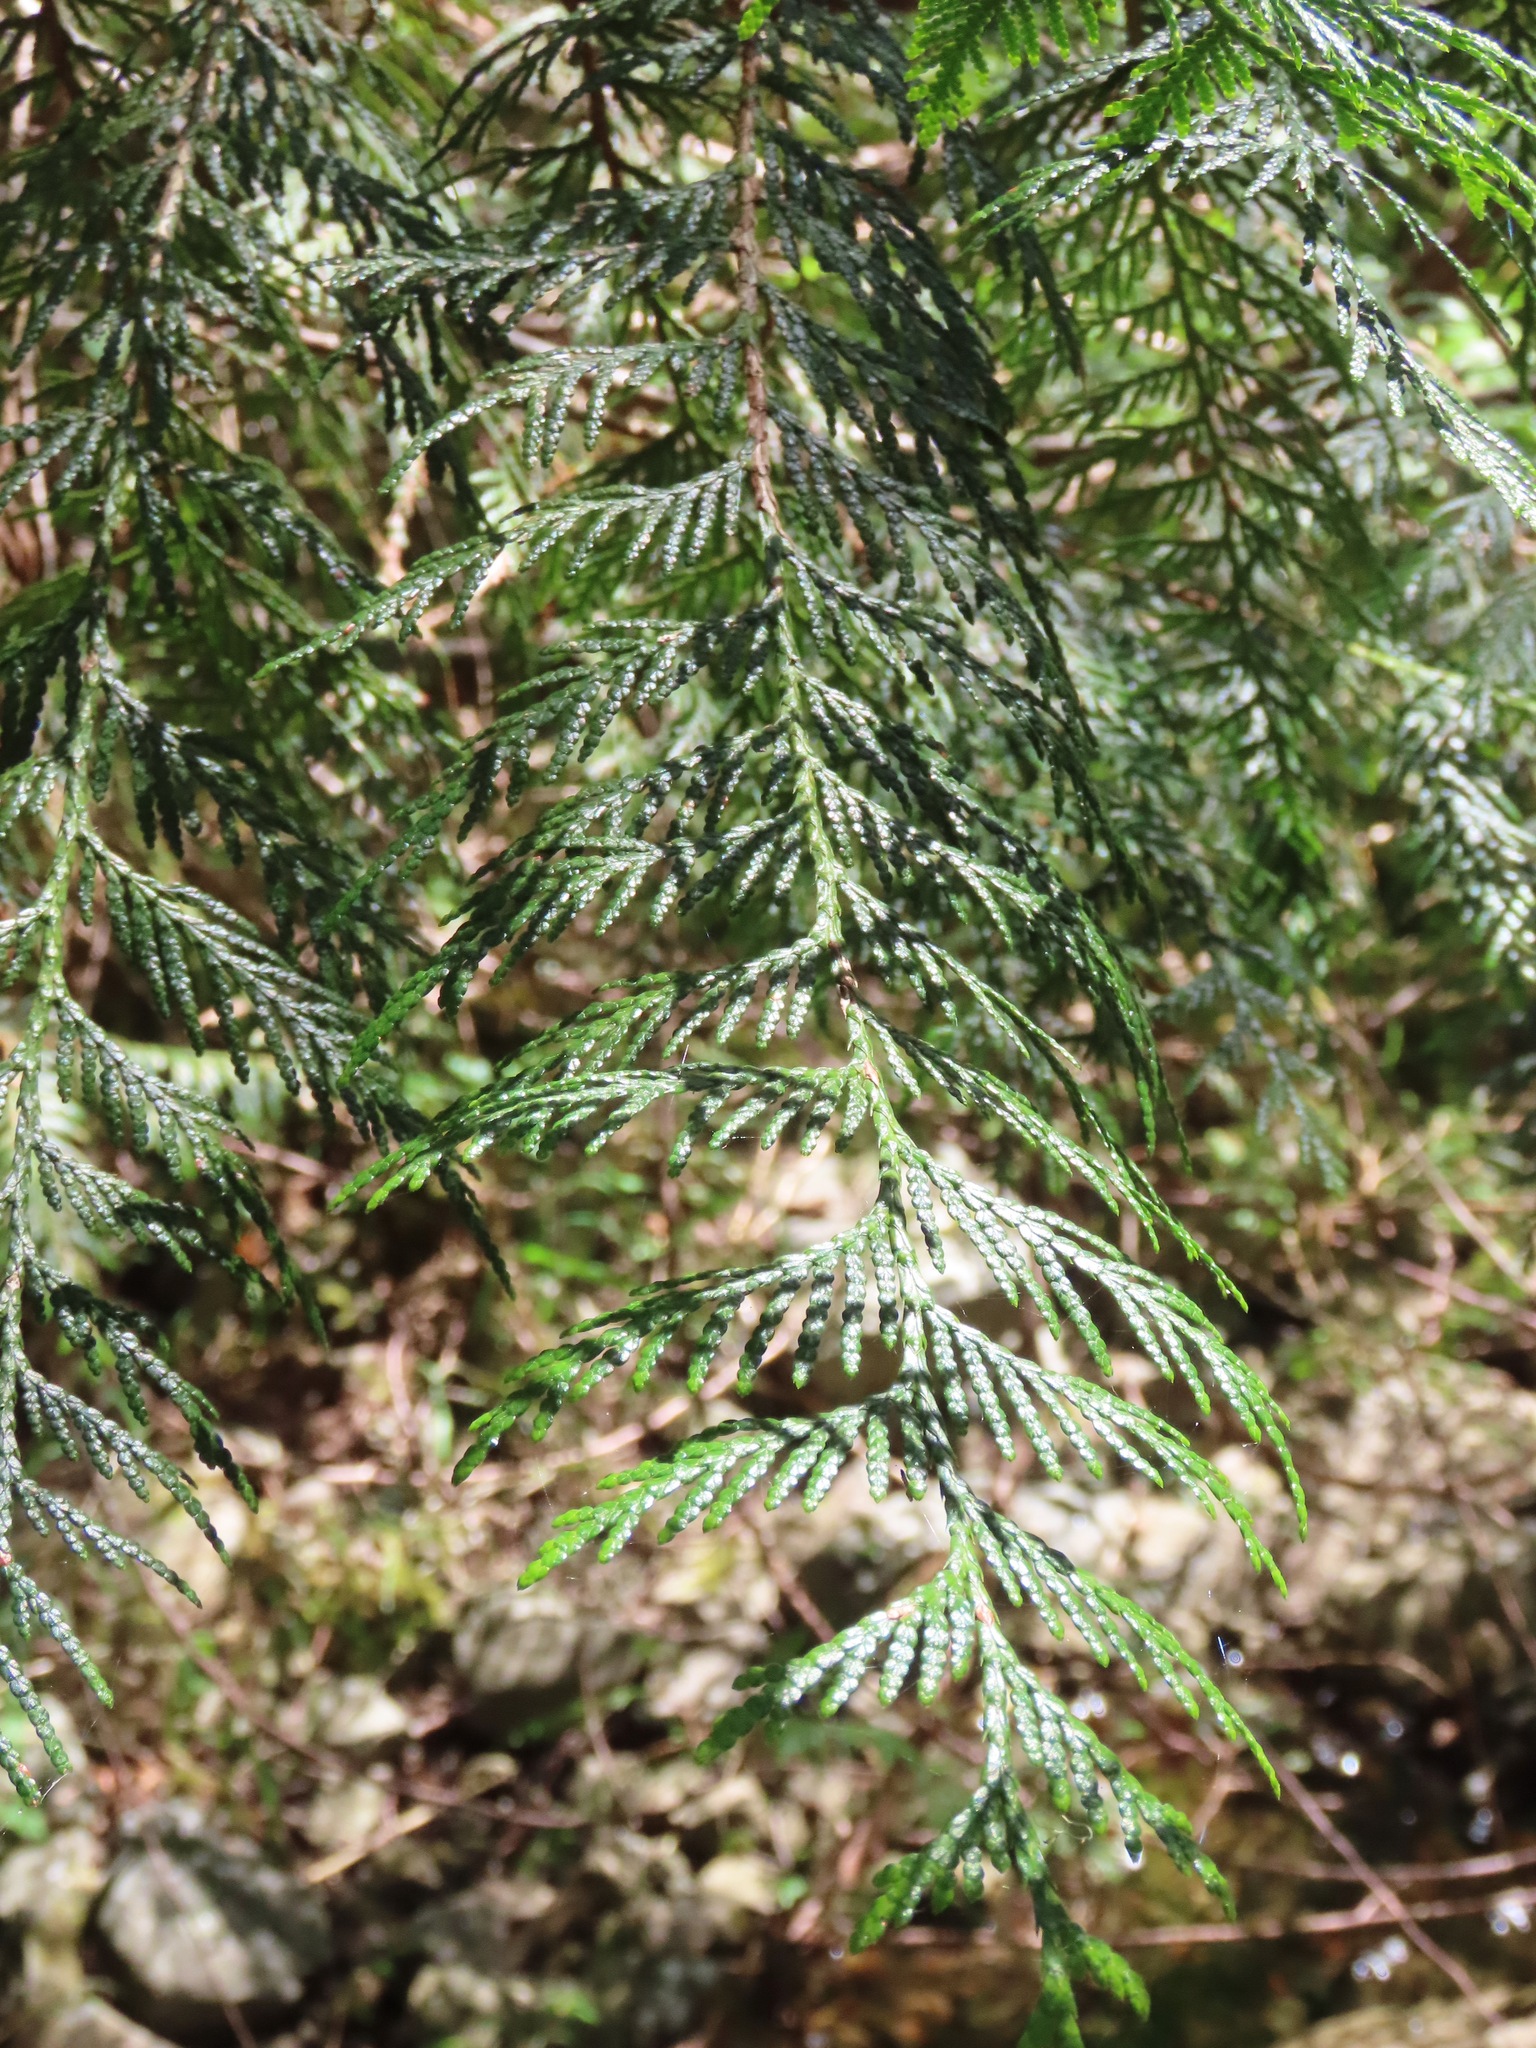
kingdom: Plantae
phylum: Tracheophyta
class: Pinopsida
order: Pinales
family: Cupressaceae
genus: Thuja
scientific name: Thuja plicata
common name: Western red-cedar
